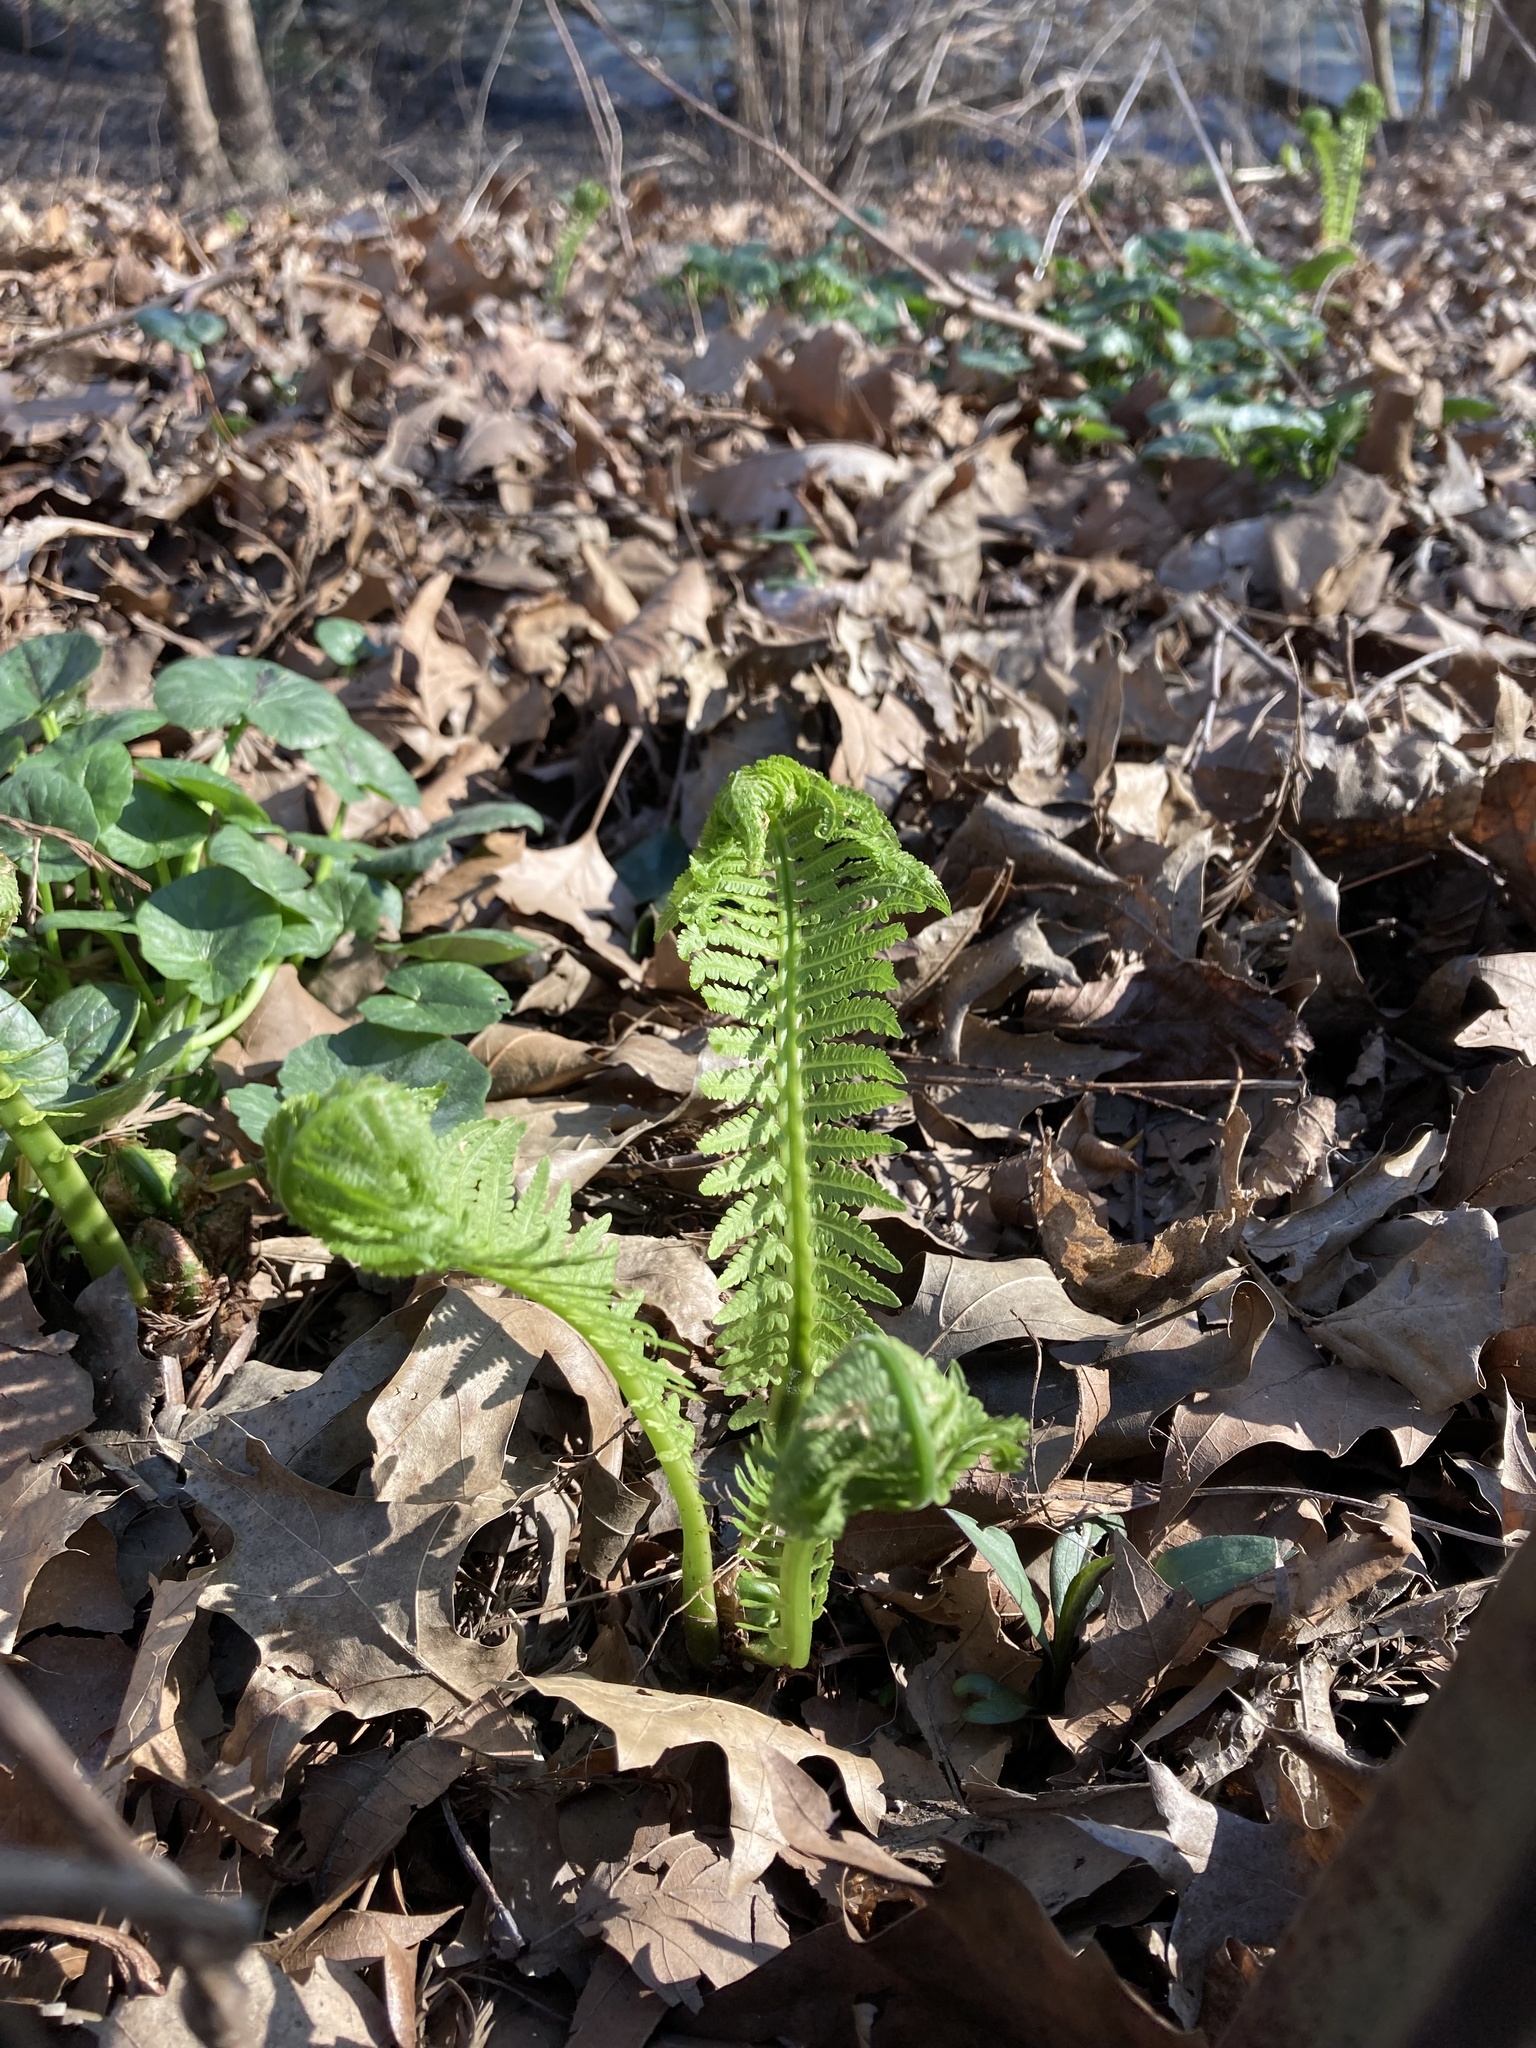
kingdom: Plantae
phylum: Tracheophyta
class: Polypodiopsida
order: Polypodiales
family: Onocleaceae
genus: Matteuccia
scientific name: Matteuccia struthiopteris
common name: Ostrich fern
